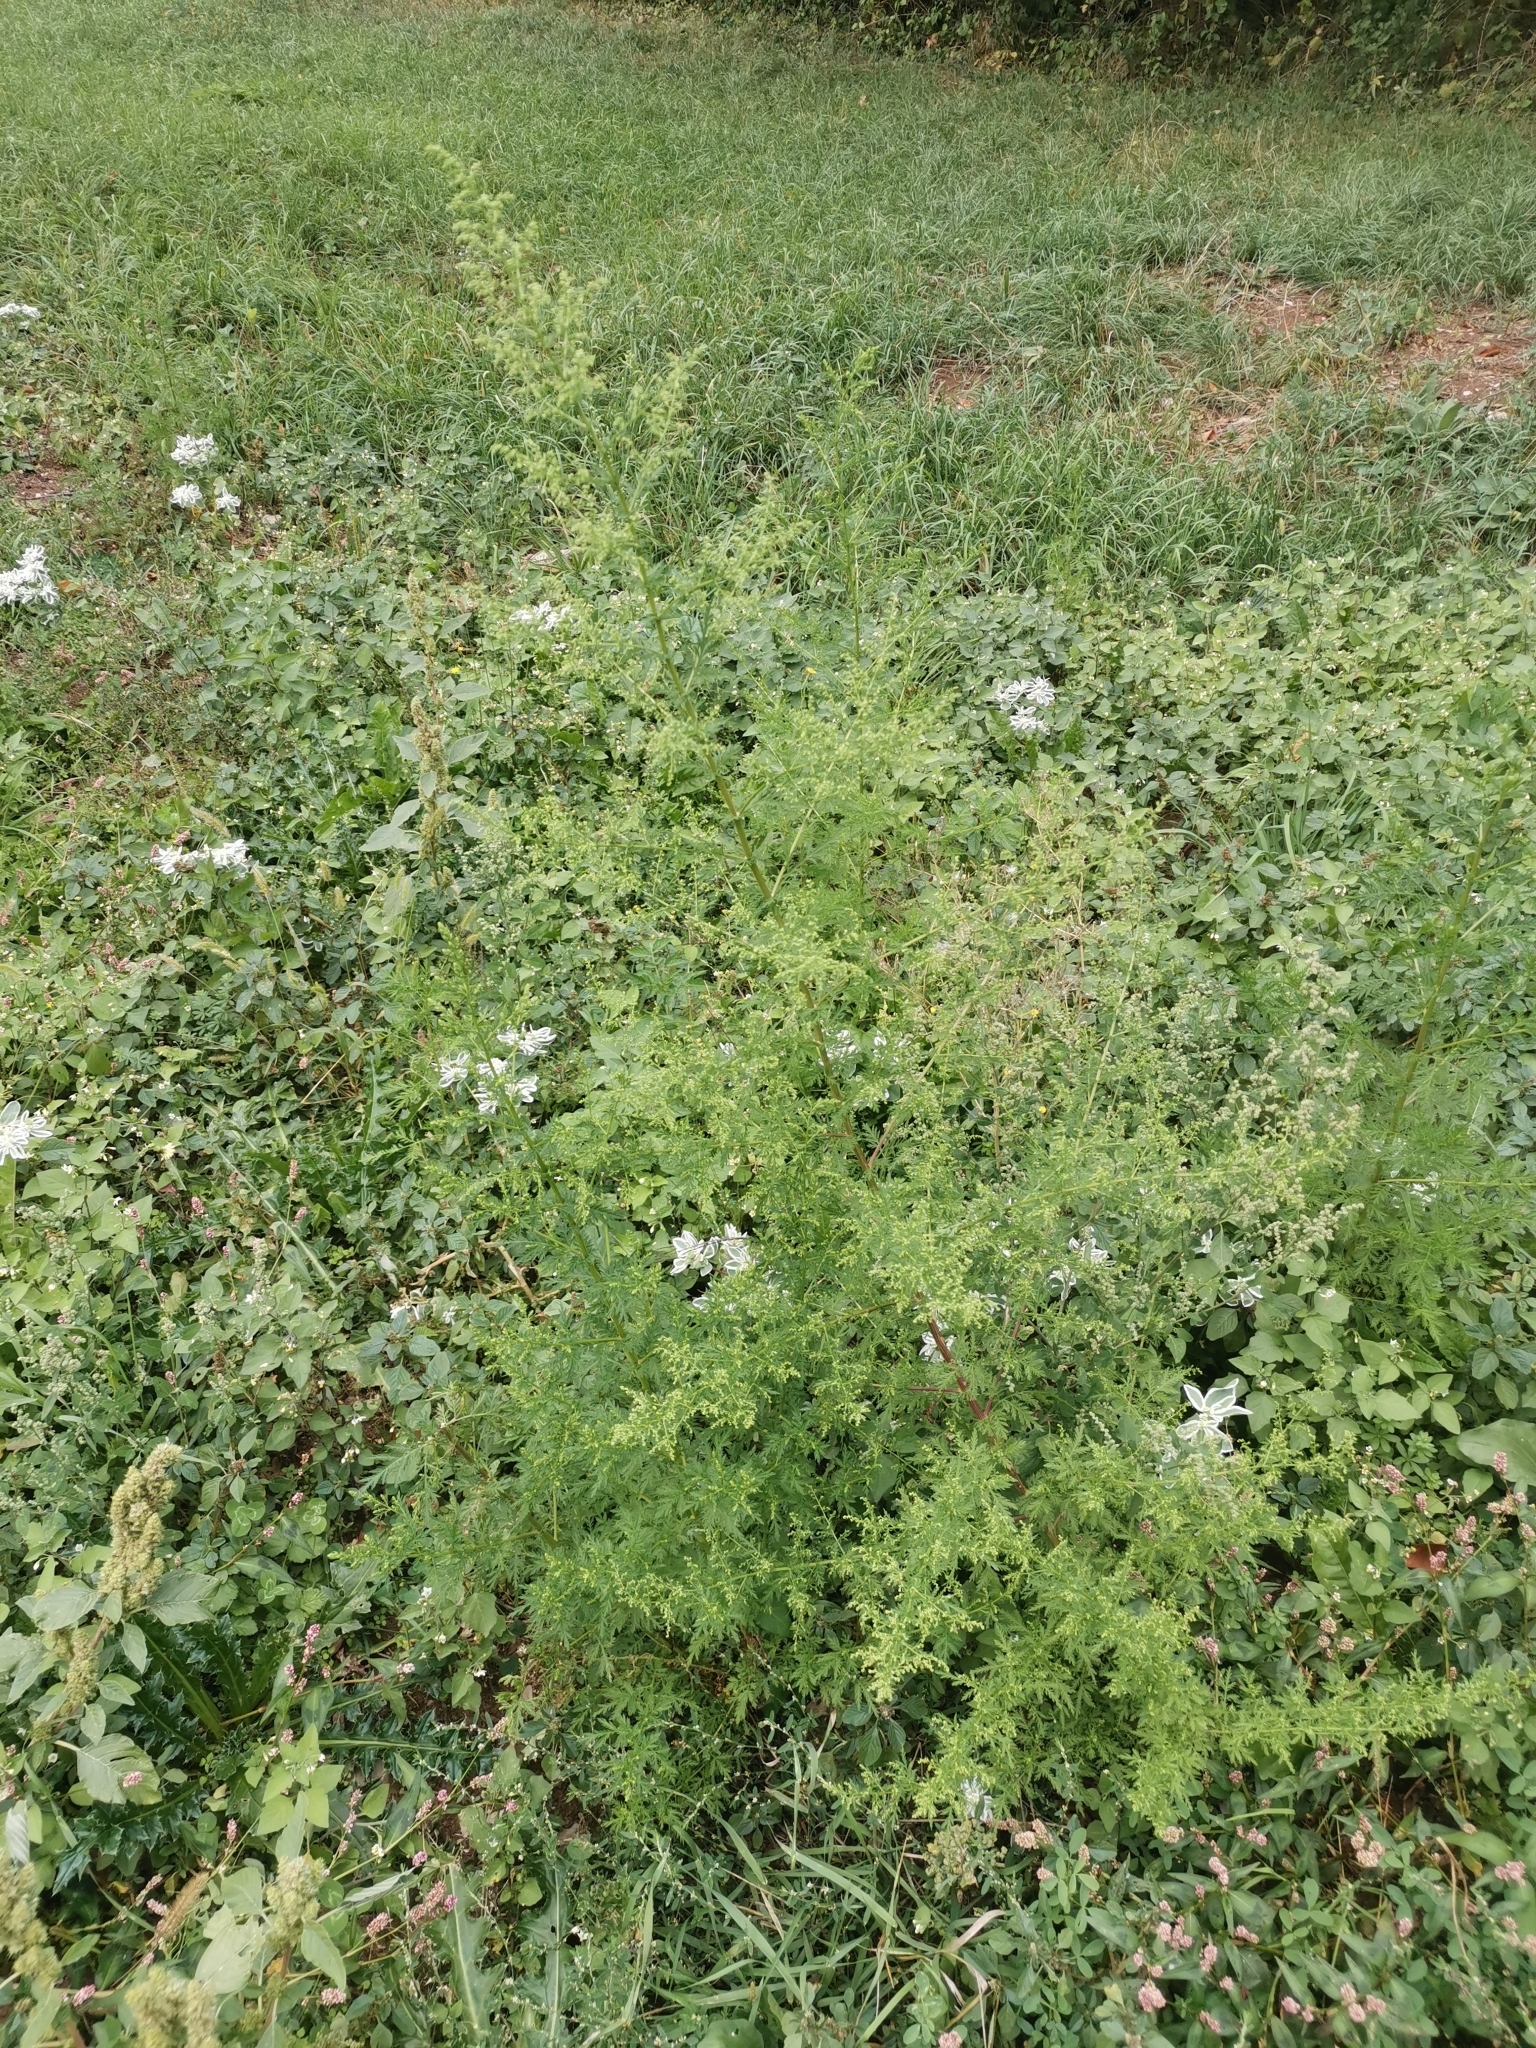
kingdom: Plantae
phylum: Tracheophyta
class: Magnoliopsida
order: Asterales
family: Asteraceae
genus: Artemisia
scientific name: Artemisia annua
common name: Sweet sagewort
